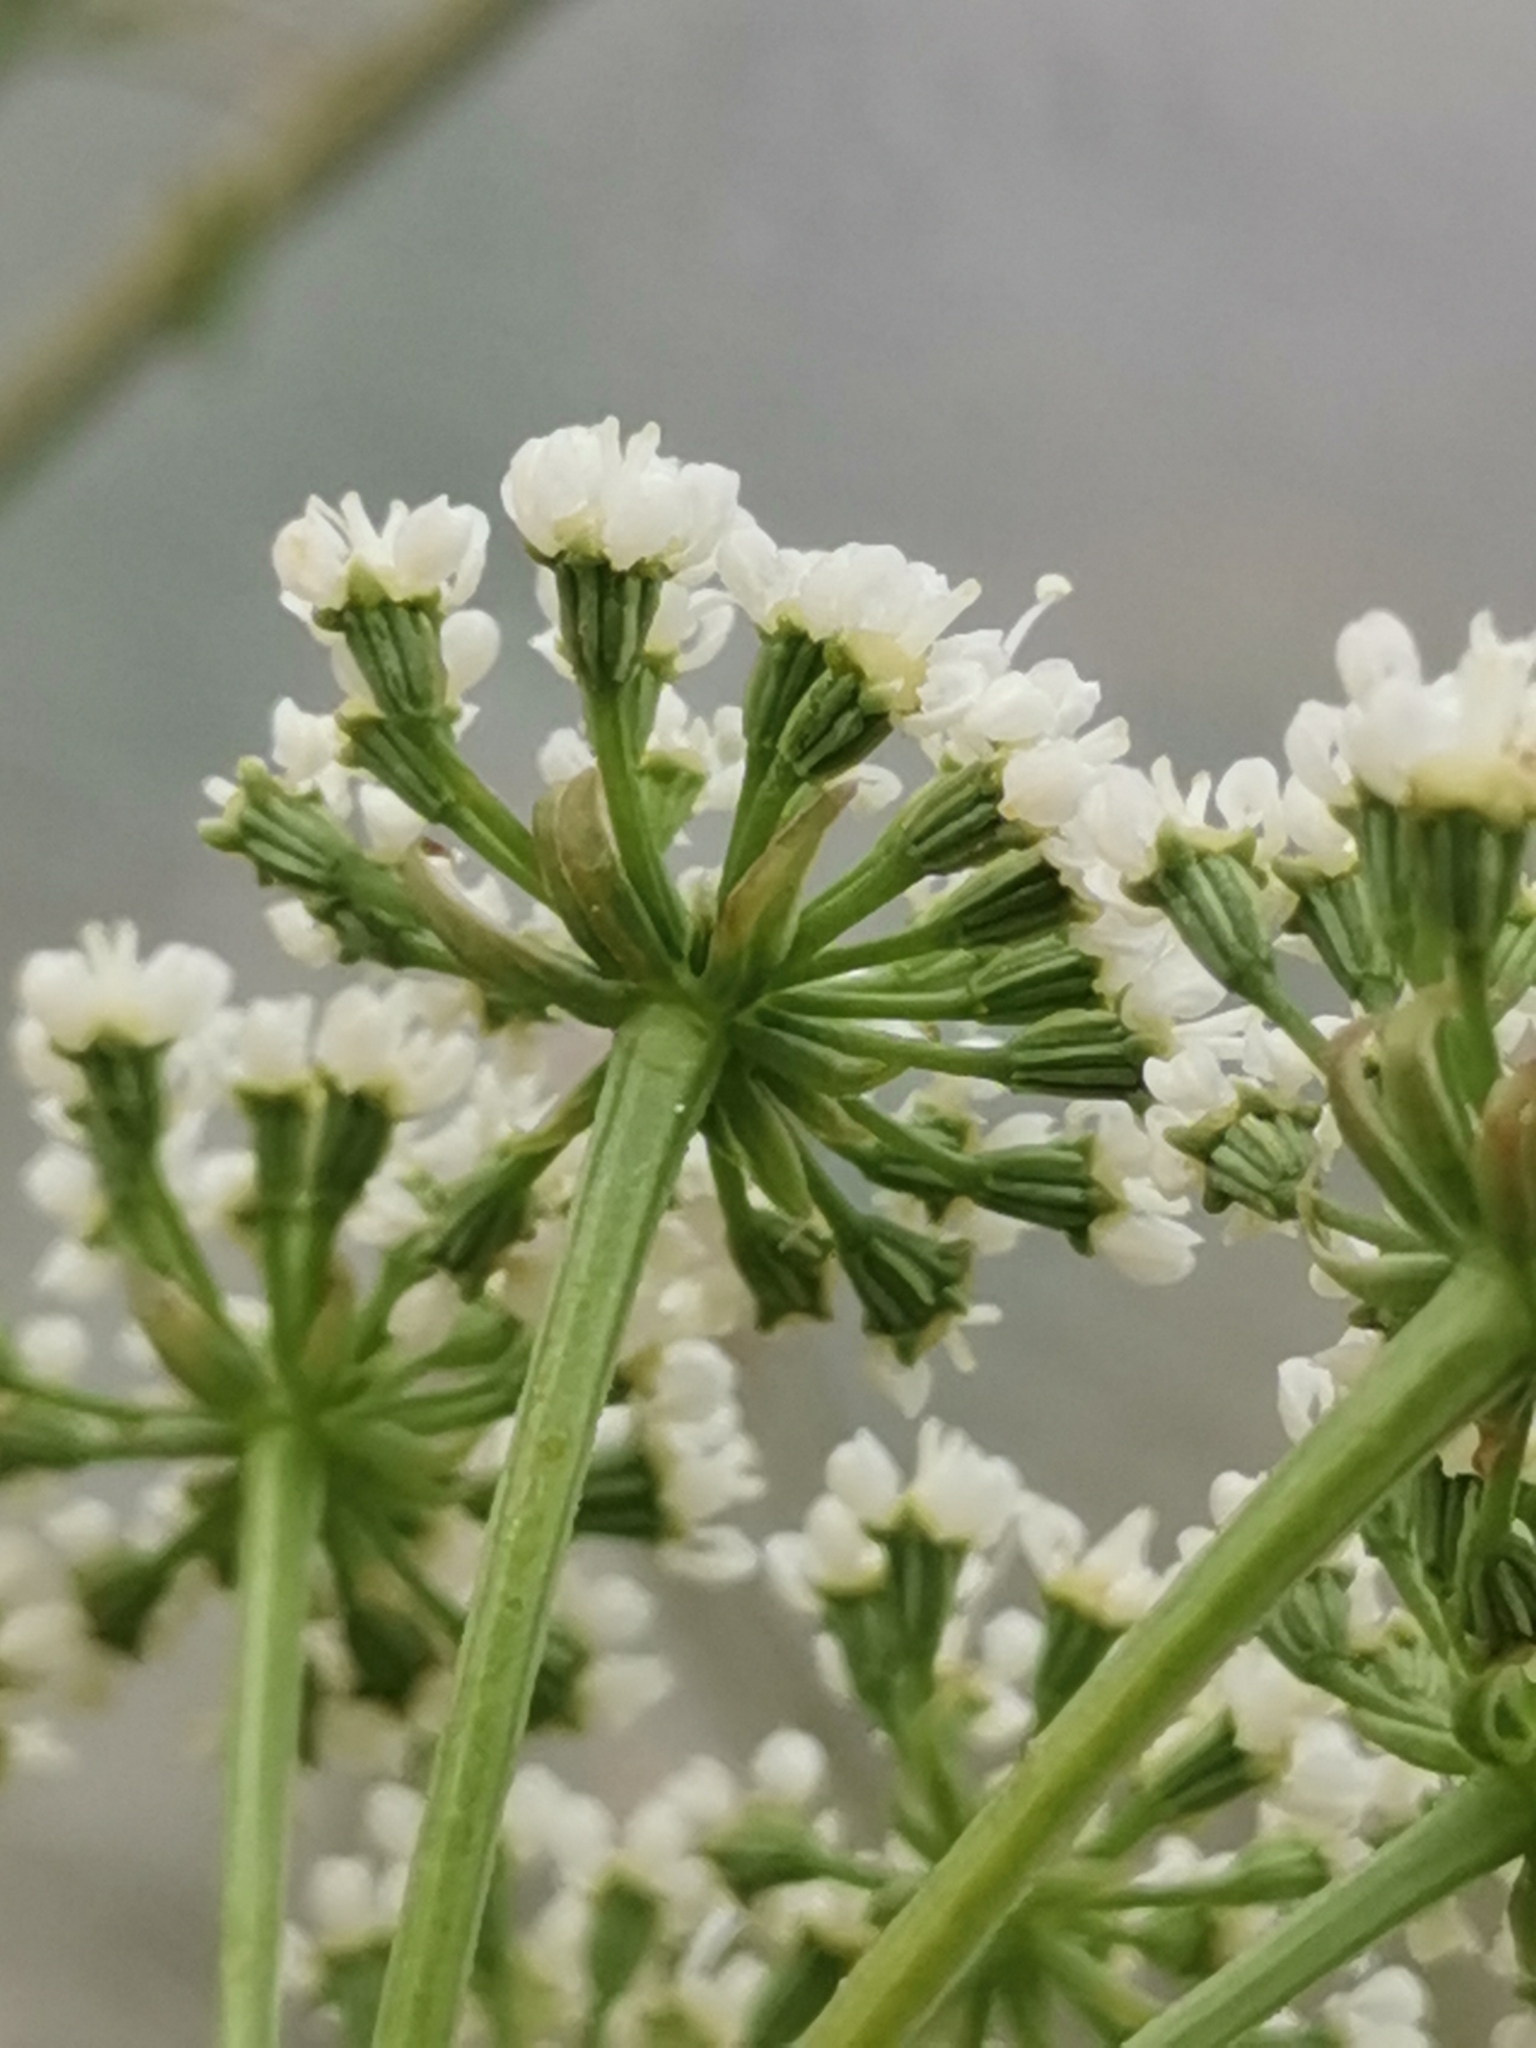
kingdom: Plantae
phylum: Tracheophyta
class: Magnoliopsida
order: Apiales
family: Apiaceae
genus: Xanthoselinum
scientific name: Xanthoselinum alsaticum
